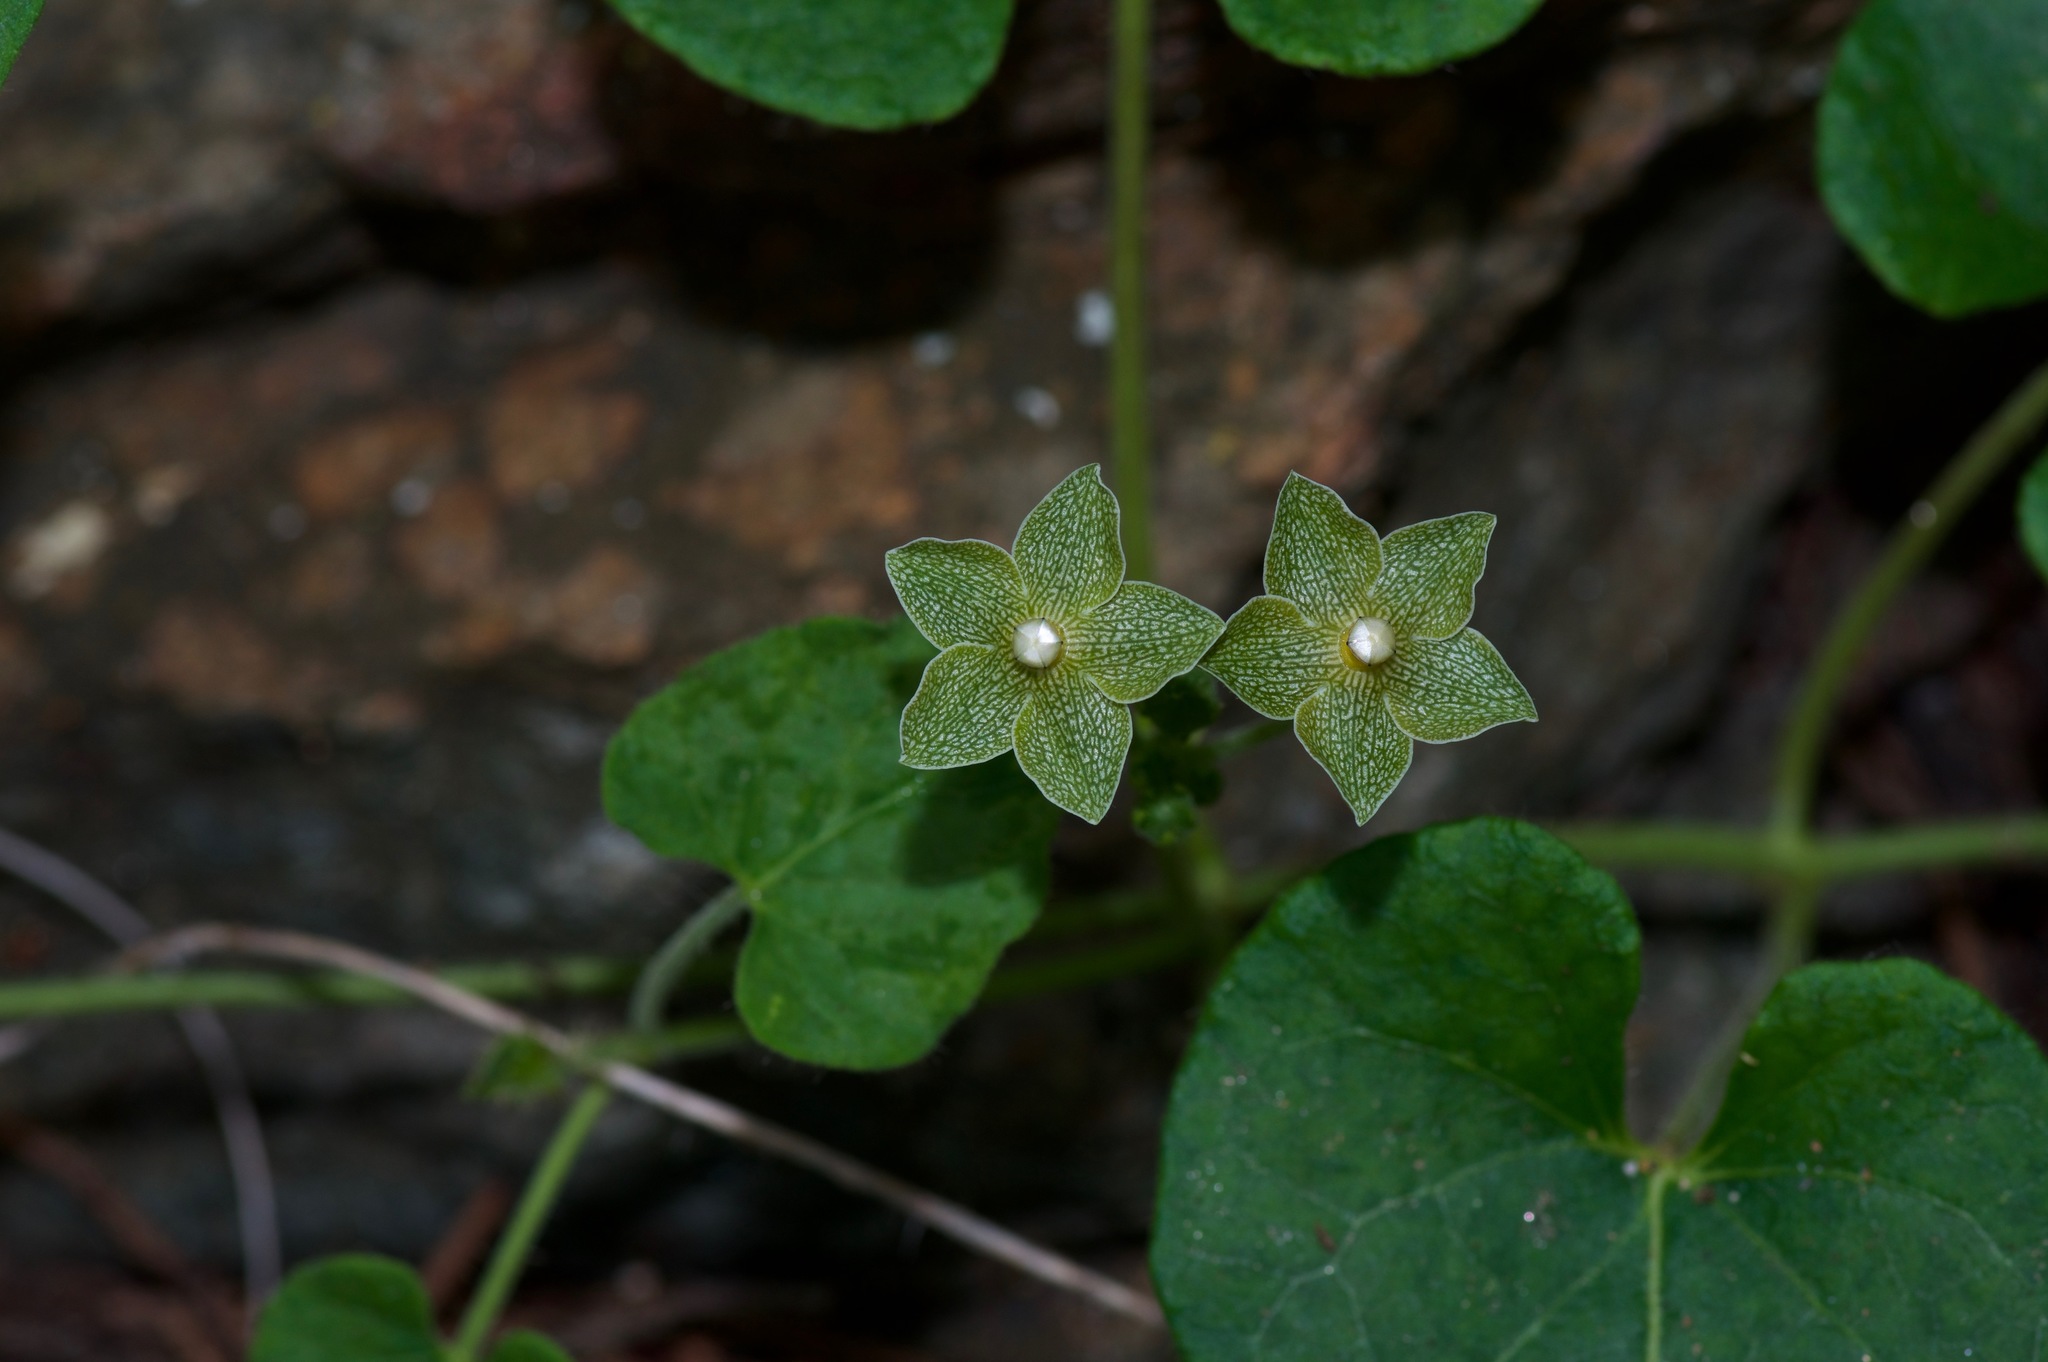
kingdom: Plantae
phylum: Tracheophyta
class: Magnoliopsida
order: Gentianales
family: Apocynaceae
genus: Dictyanthus
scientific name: Dictyanthus reticulatus
